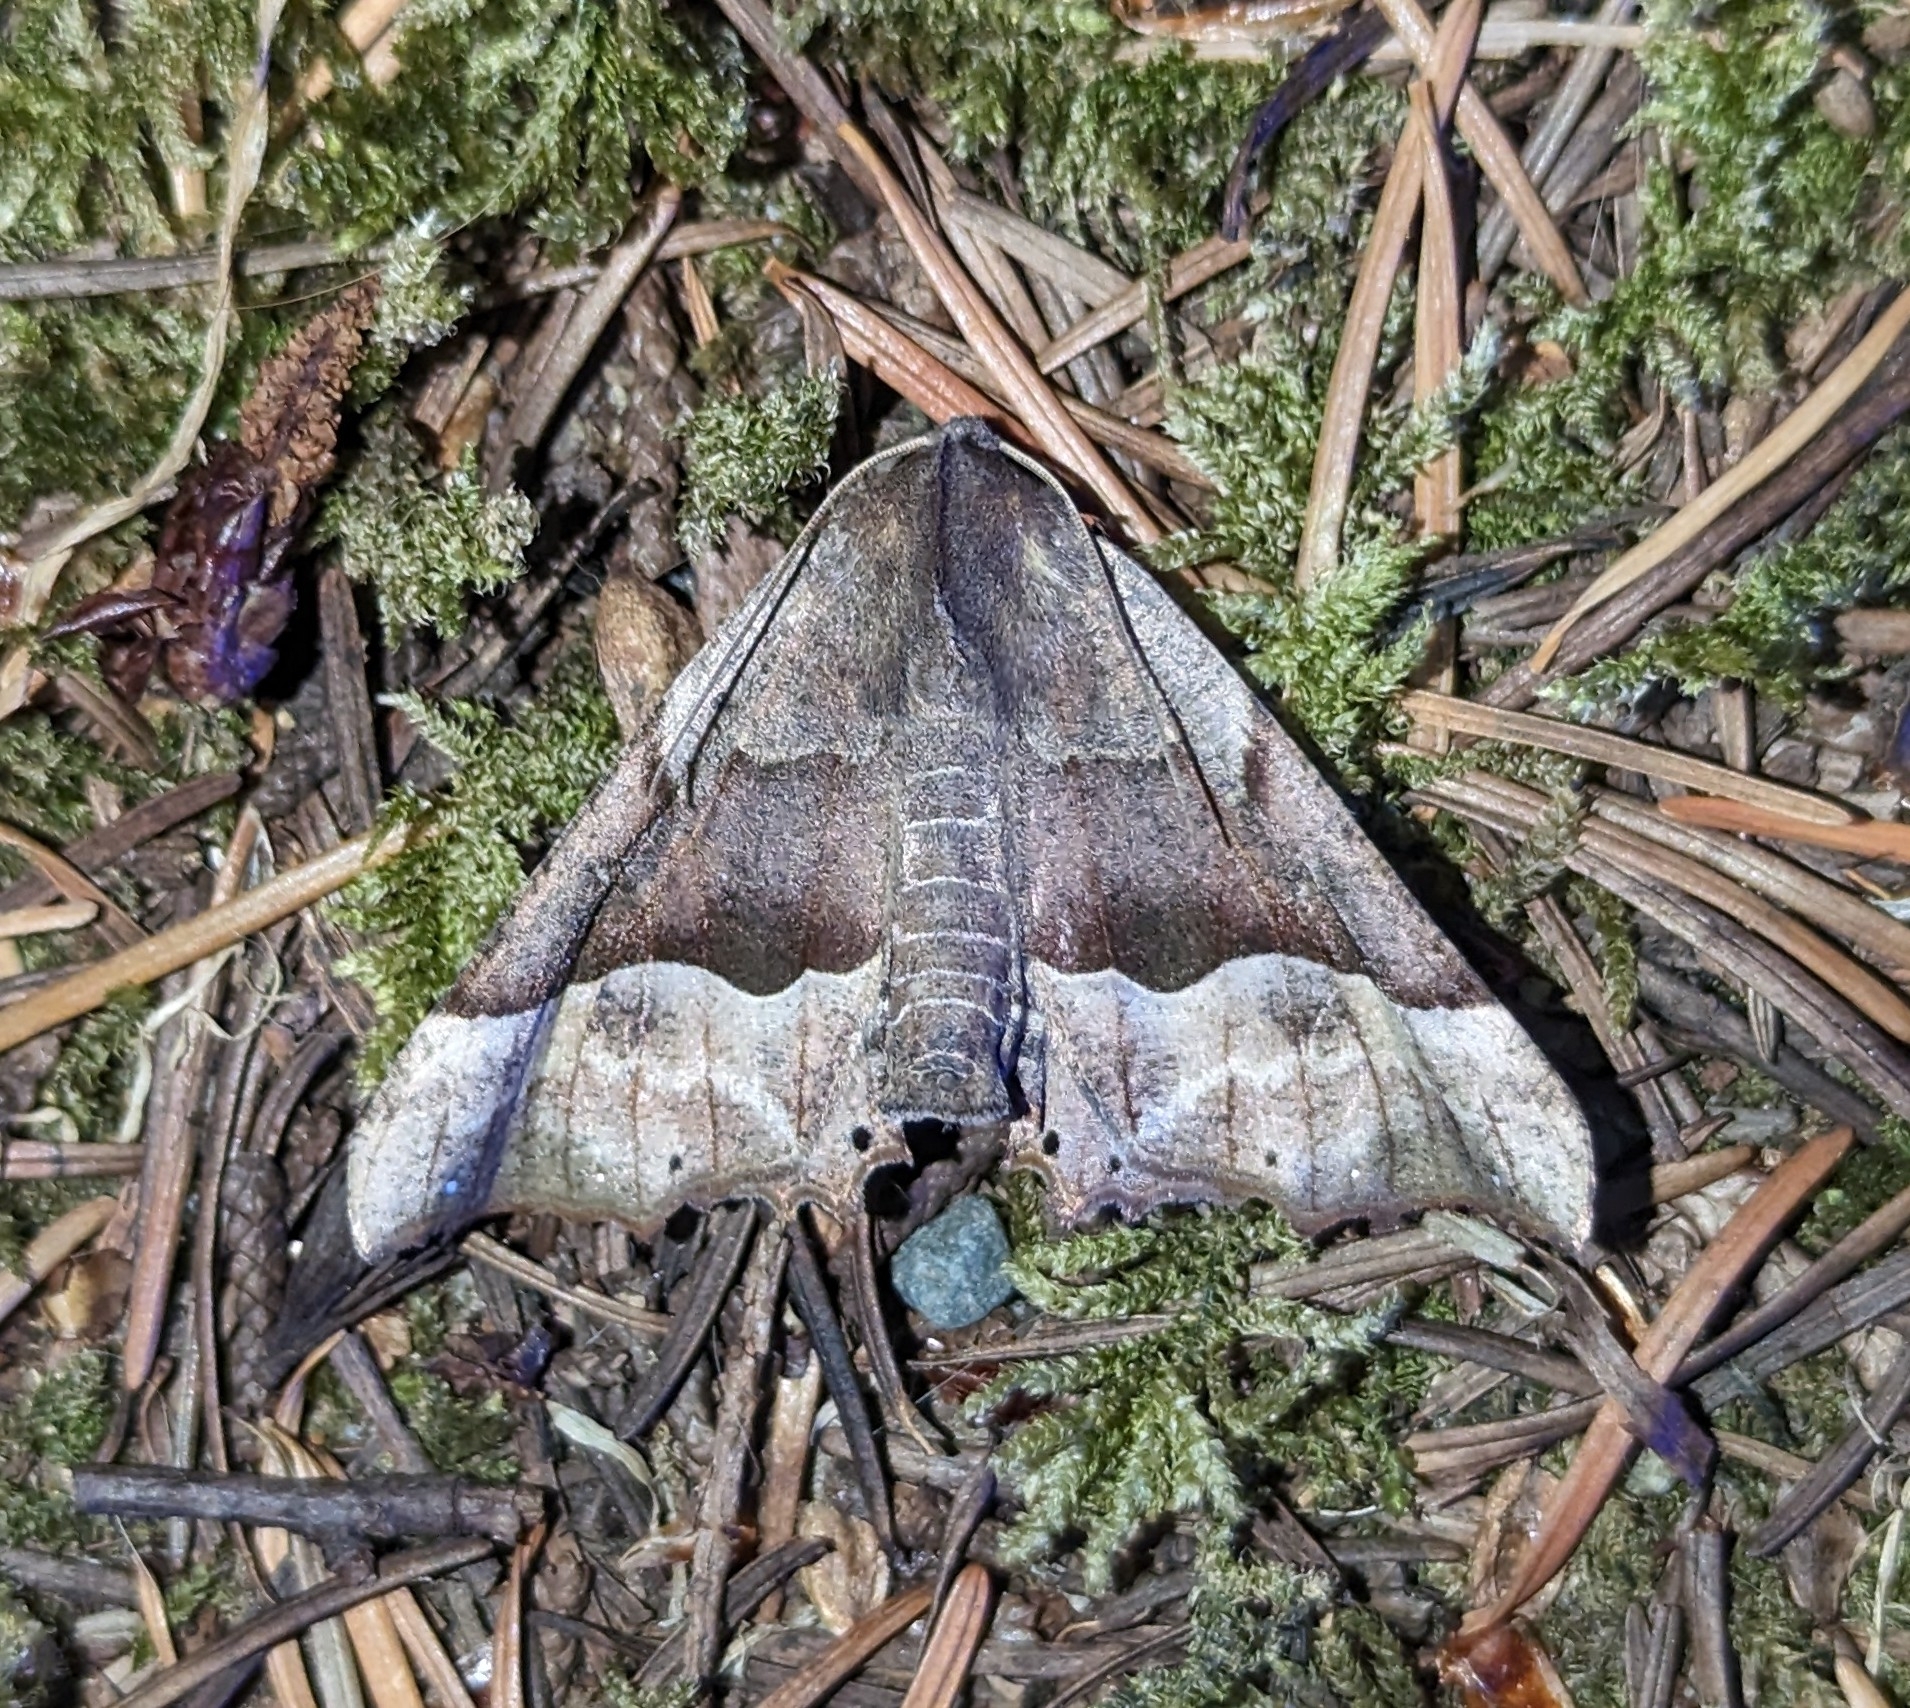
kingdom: Animalia
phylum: Arthropoda
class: Insecta
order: Lepidoptera
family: Geometridae
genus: Pero
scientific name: Pero mizon
